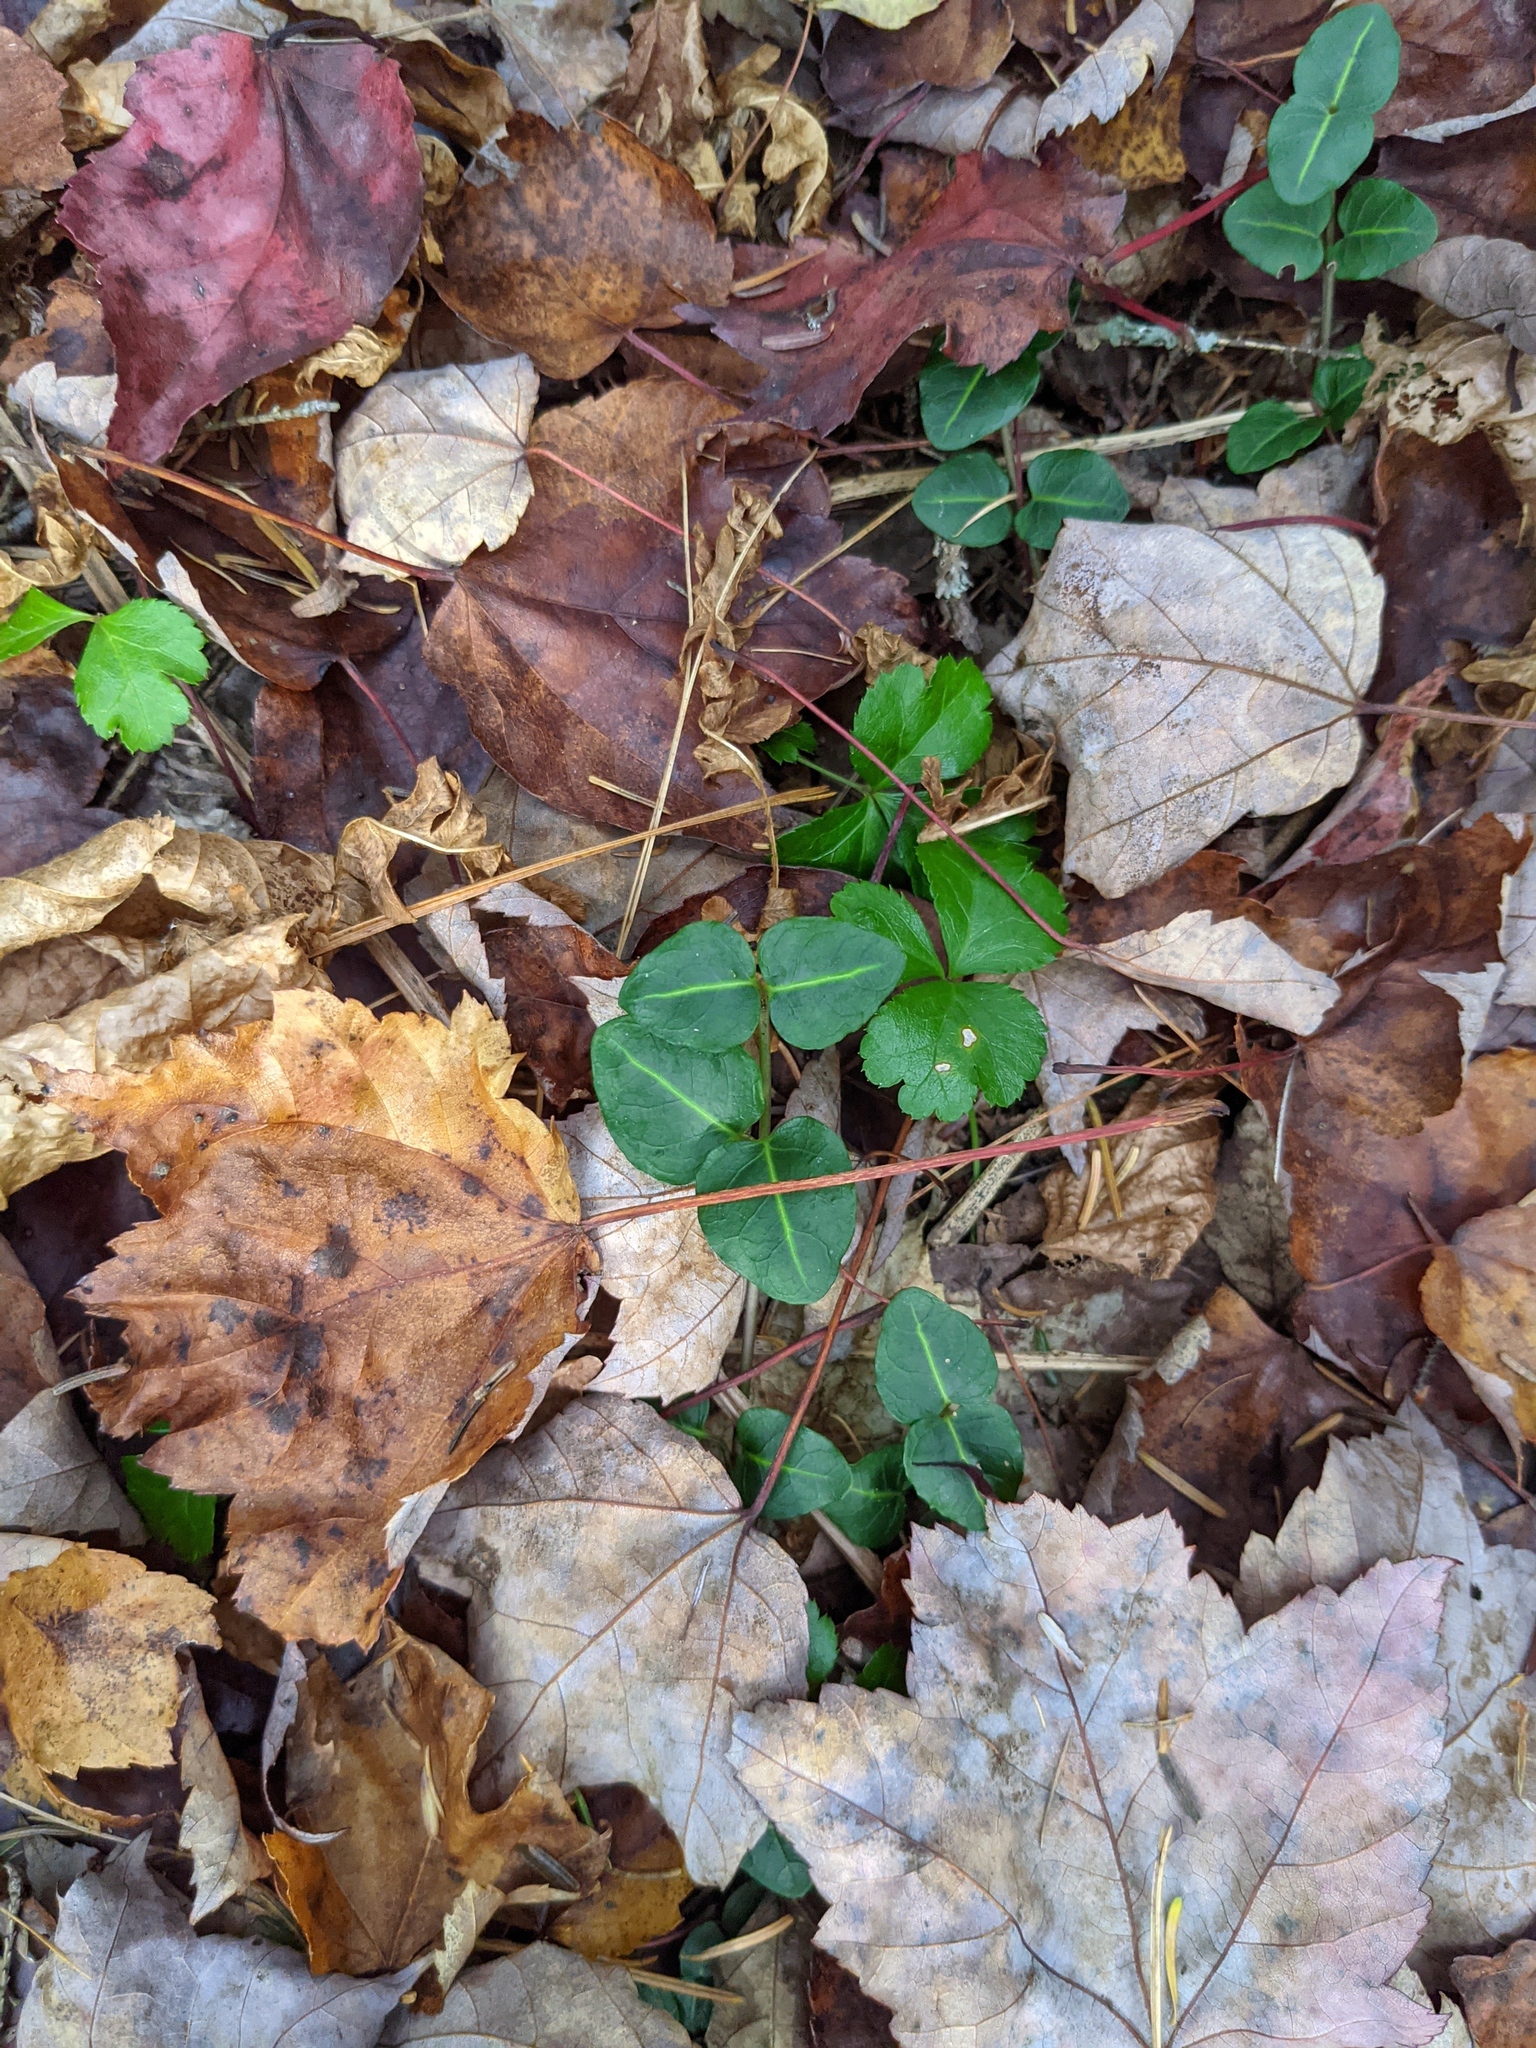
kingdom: Plantae
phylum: Tracheophyta
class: Magnoliopsida
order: Gentianales
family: Rubiaceae
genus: Mitchella
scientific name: Mitchella repens
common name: Partridge-berry
